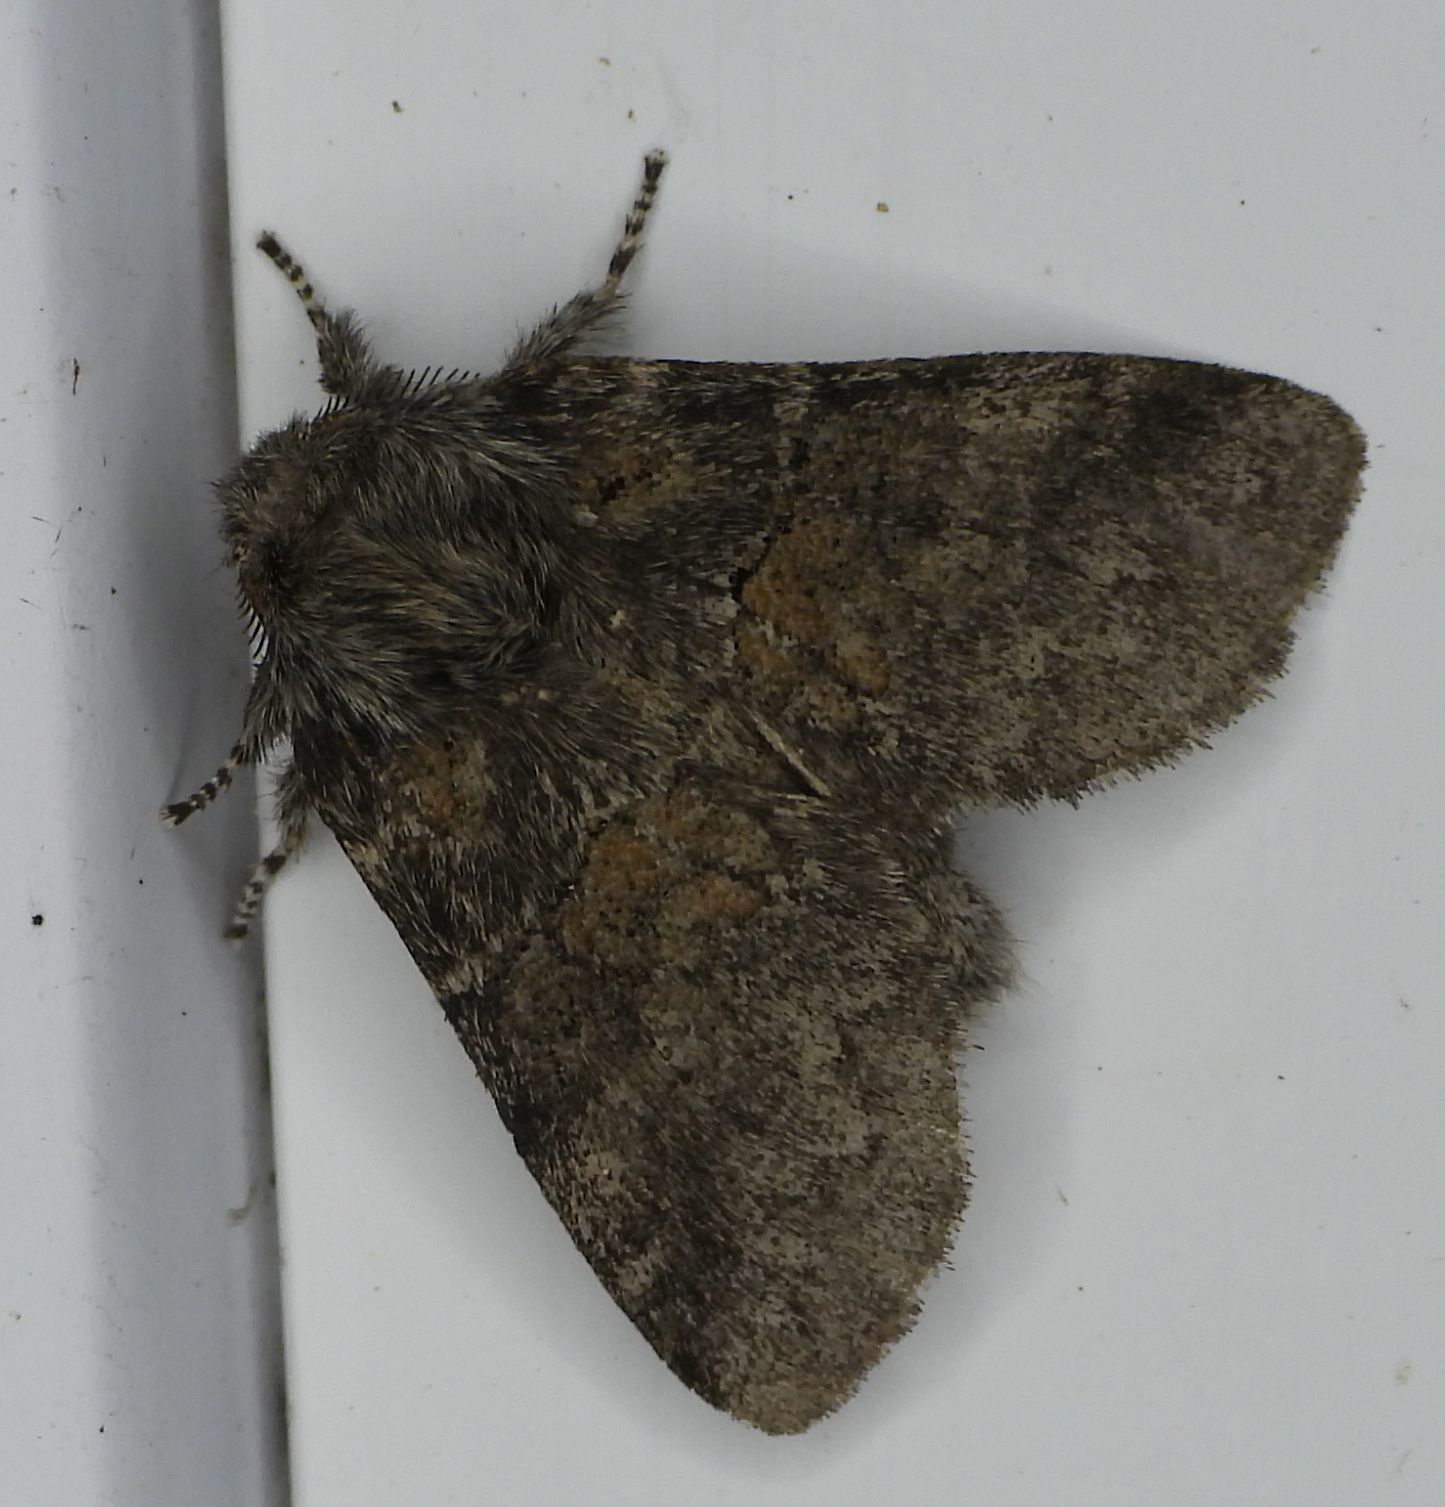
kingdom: Animalia
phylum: Arthropoda
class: Insecta
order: Lepidoptera
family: Notodontidae
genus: Gluphisia
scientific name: Gluphisia septentrionis
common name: Common gluphisia
